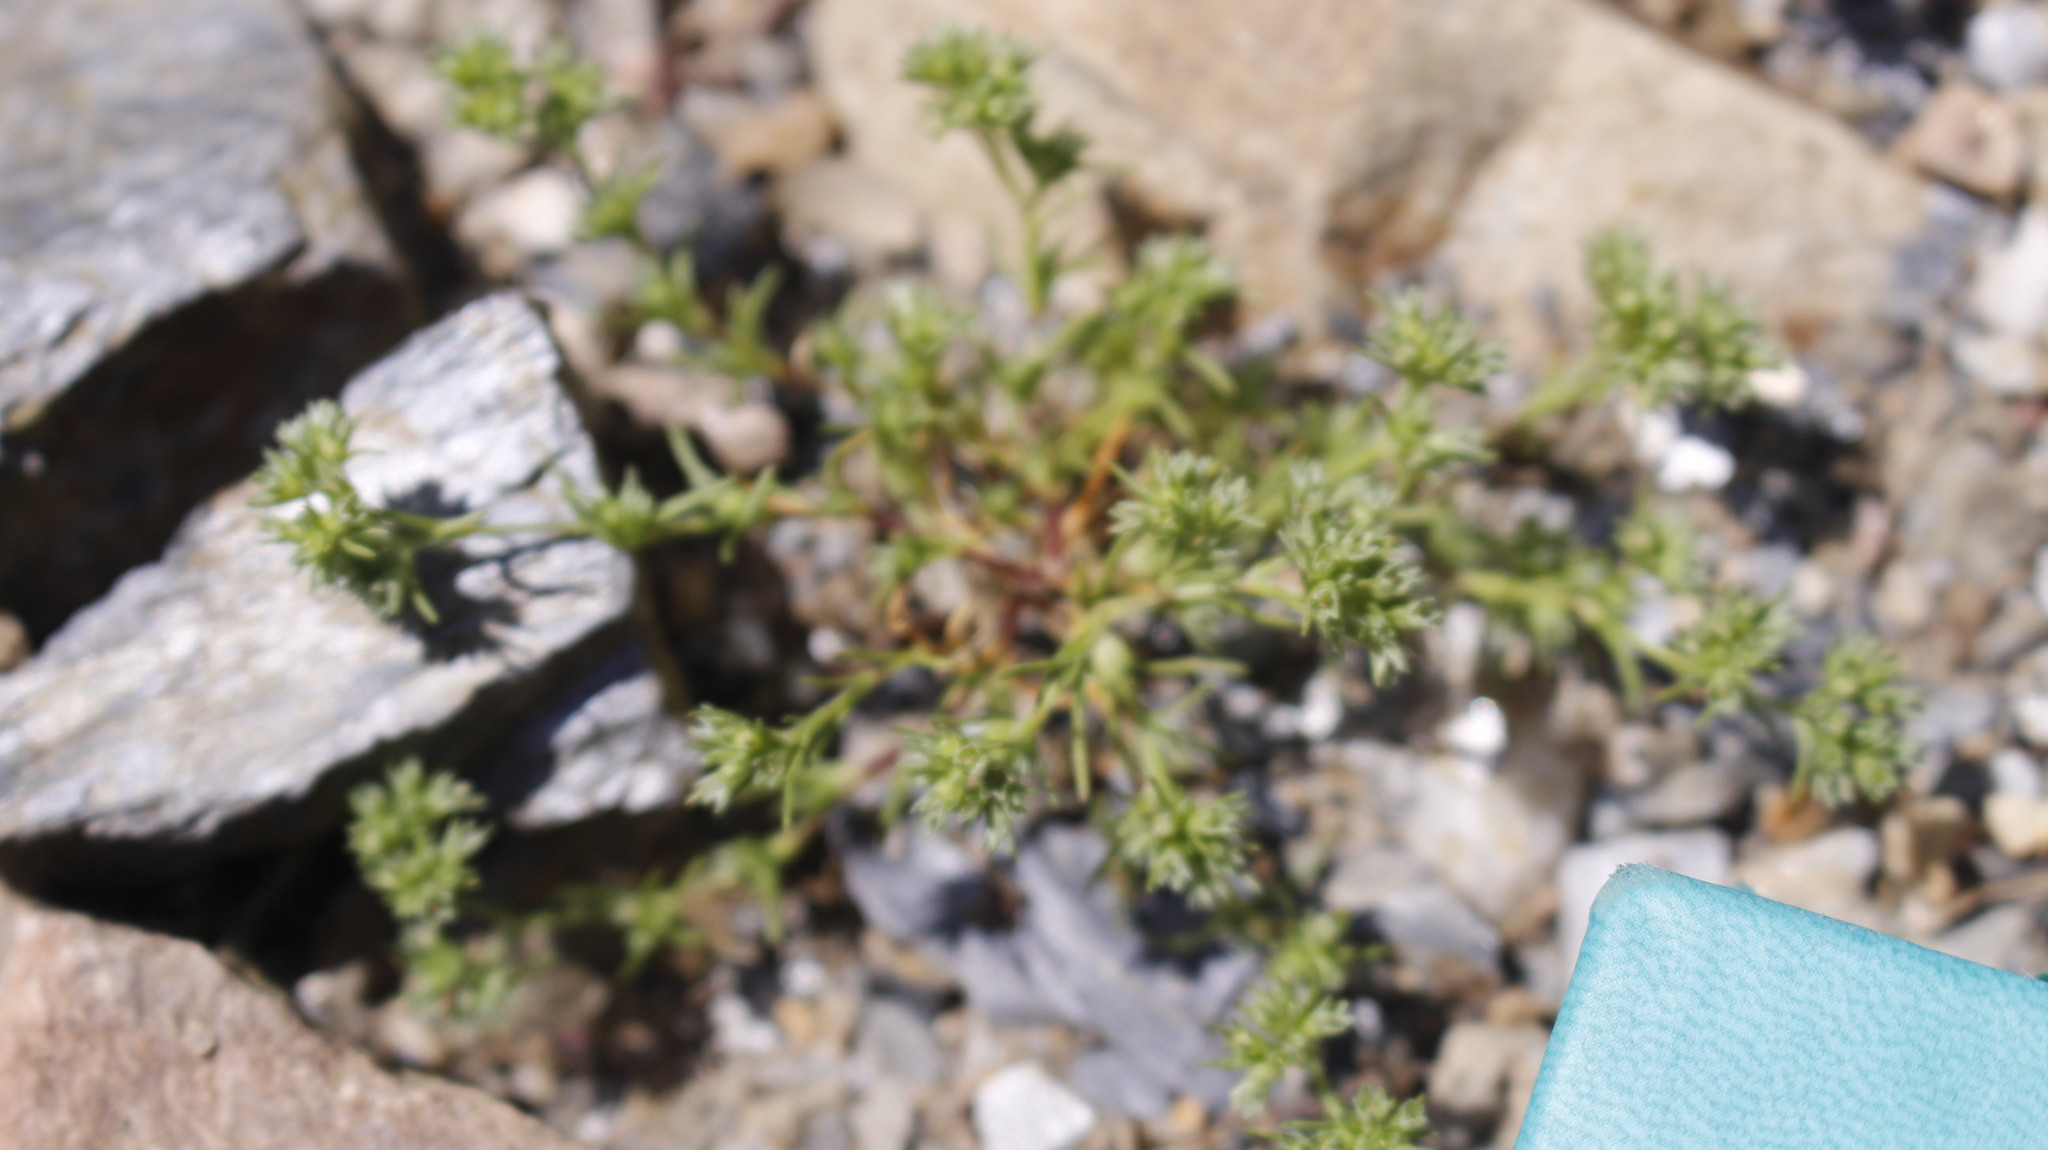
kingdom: Plantae
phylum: Tracheophyta
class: Magnoliopsida
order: Caryophyllales
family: Caryophyllaceae
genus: Scleranthus
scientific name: Scleranthus annuus
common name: Annual knawel
